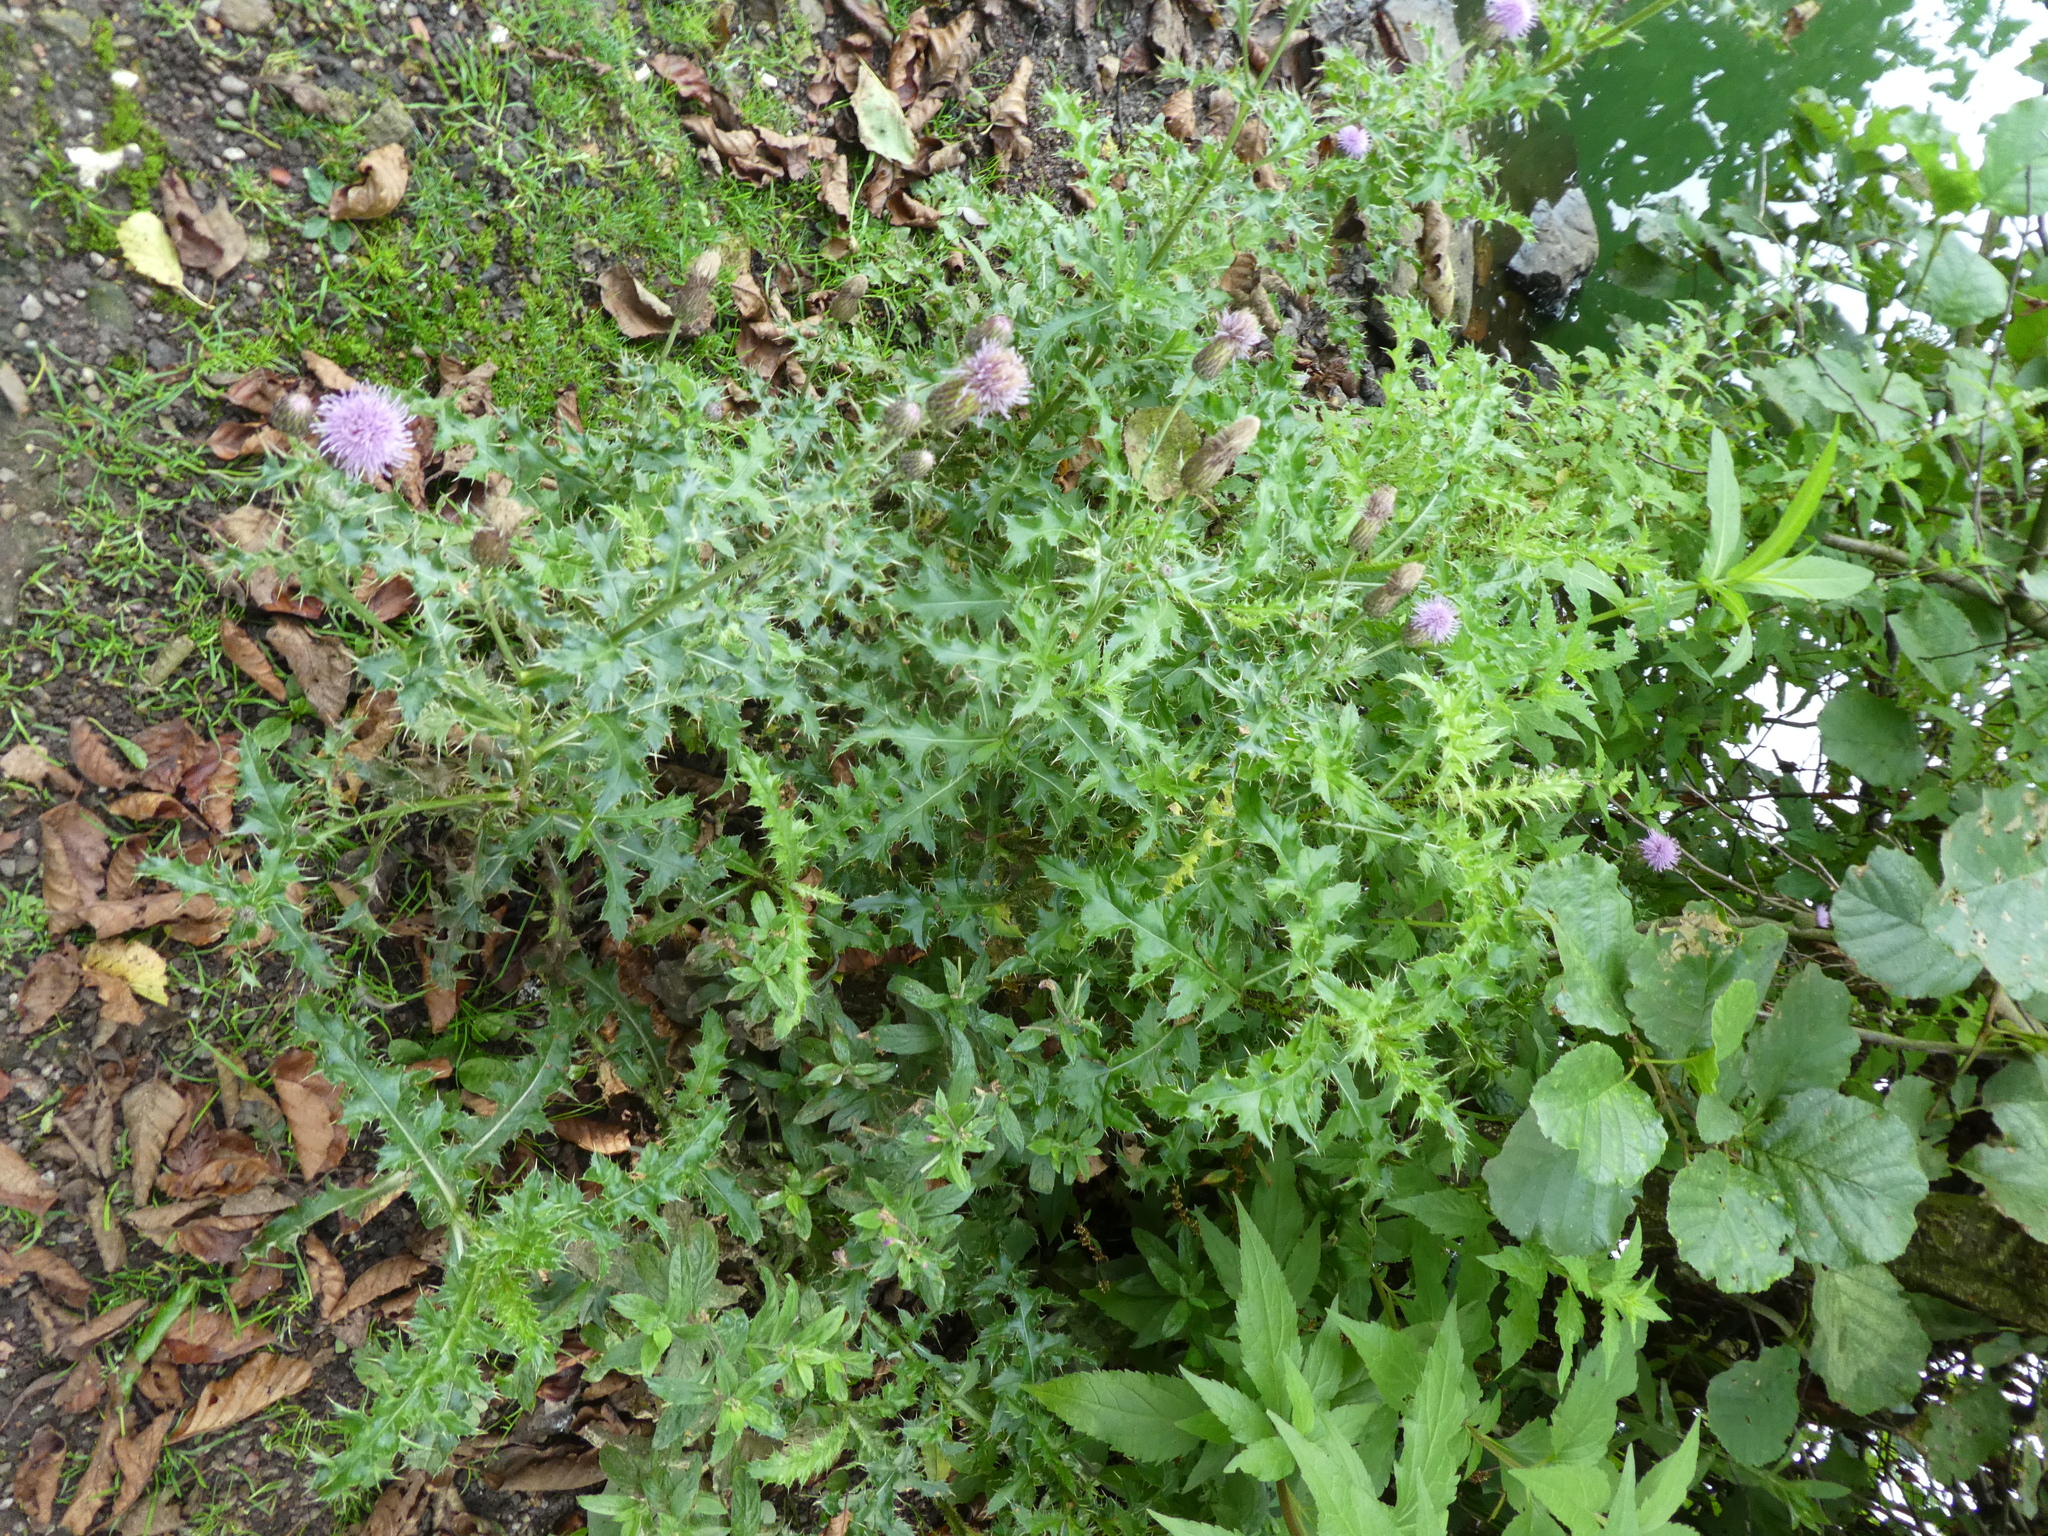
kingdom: Plantae
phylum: Tracheophyta
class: Magnoliopsida
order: Asterales
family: Asteraceae
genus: Cirsium
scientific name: Cirsium arvense
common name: Creeping thistle
